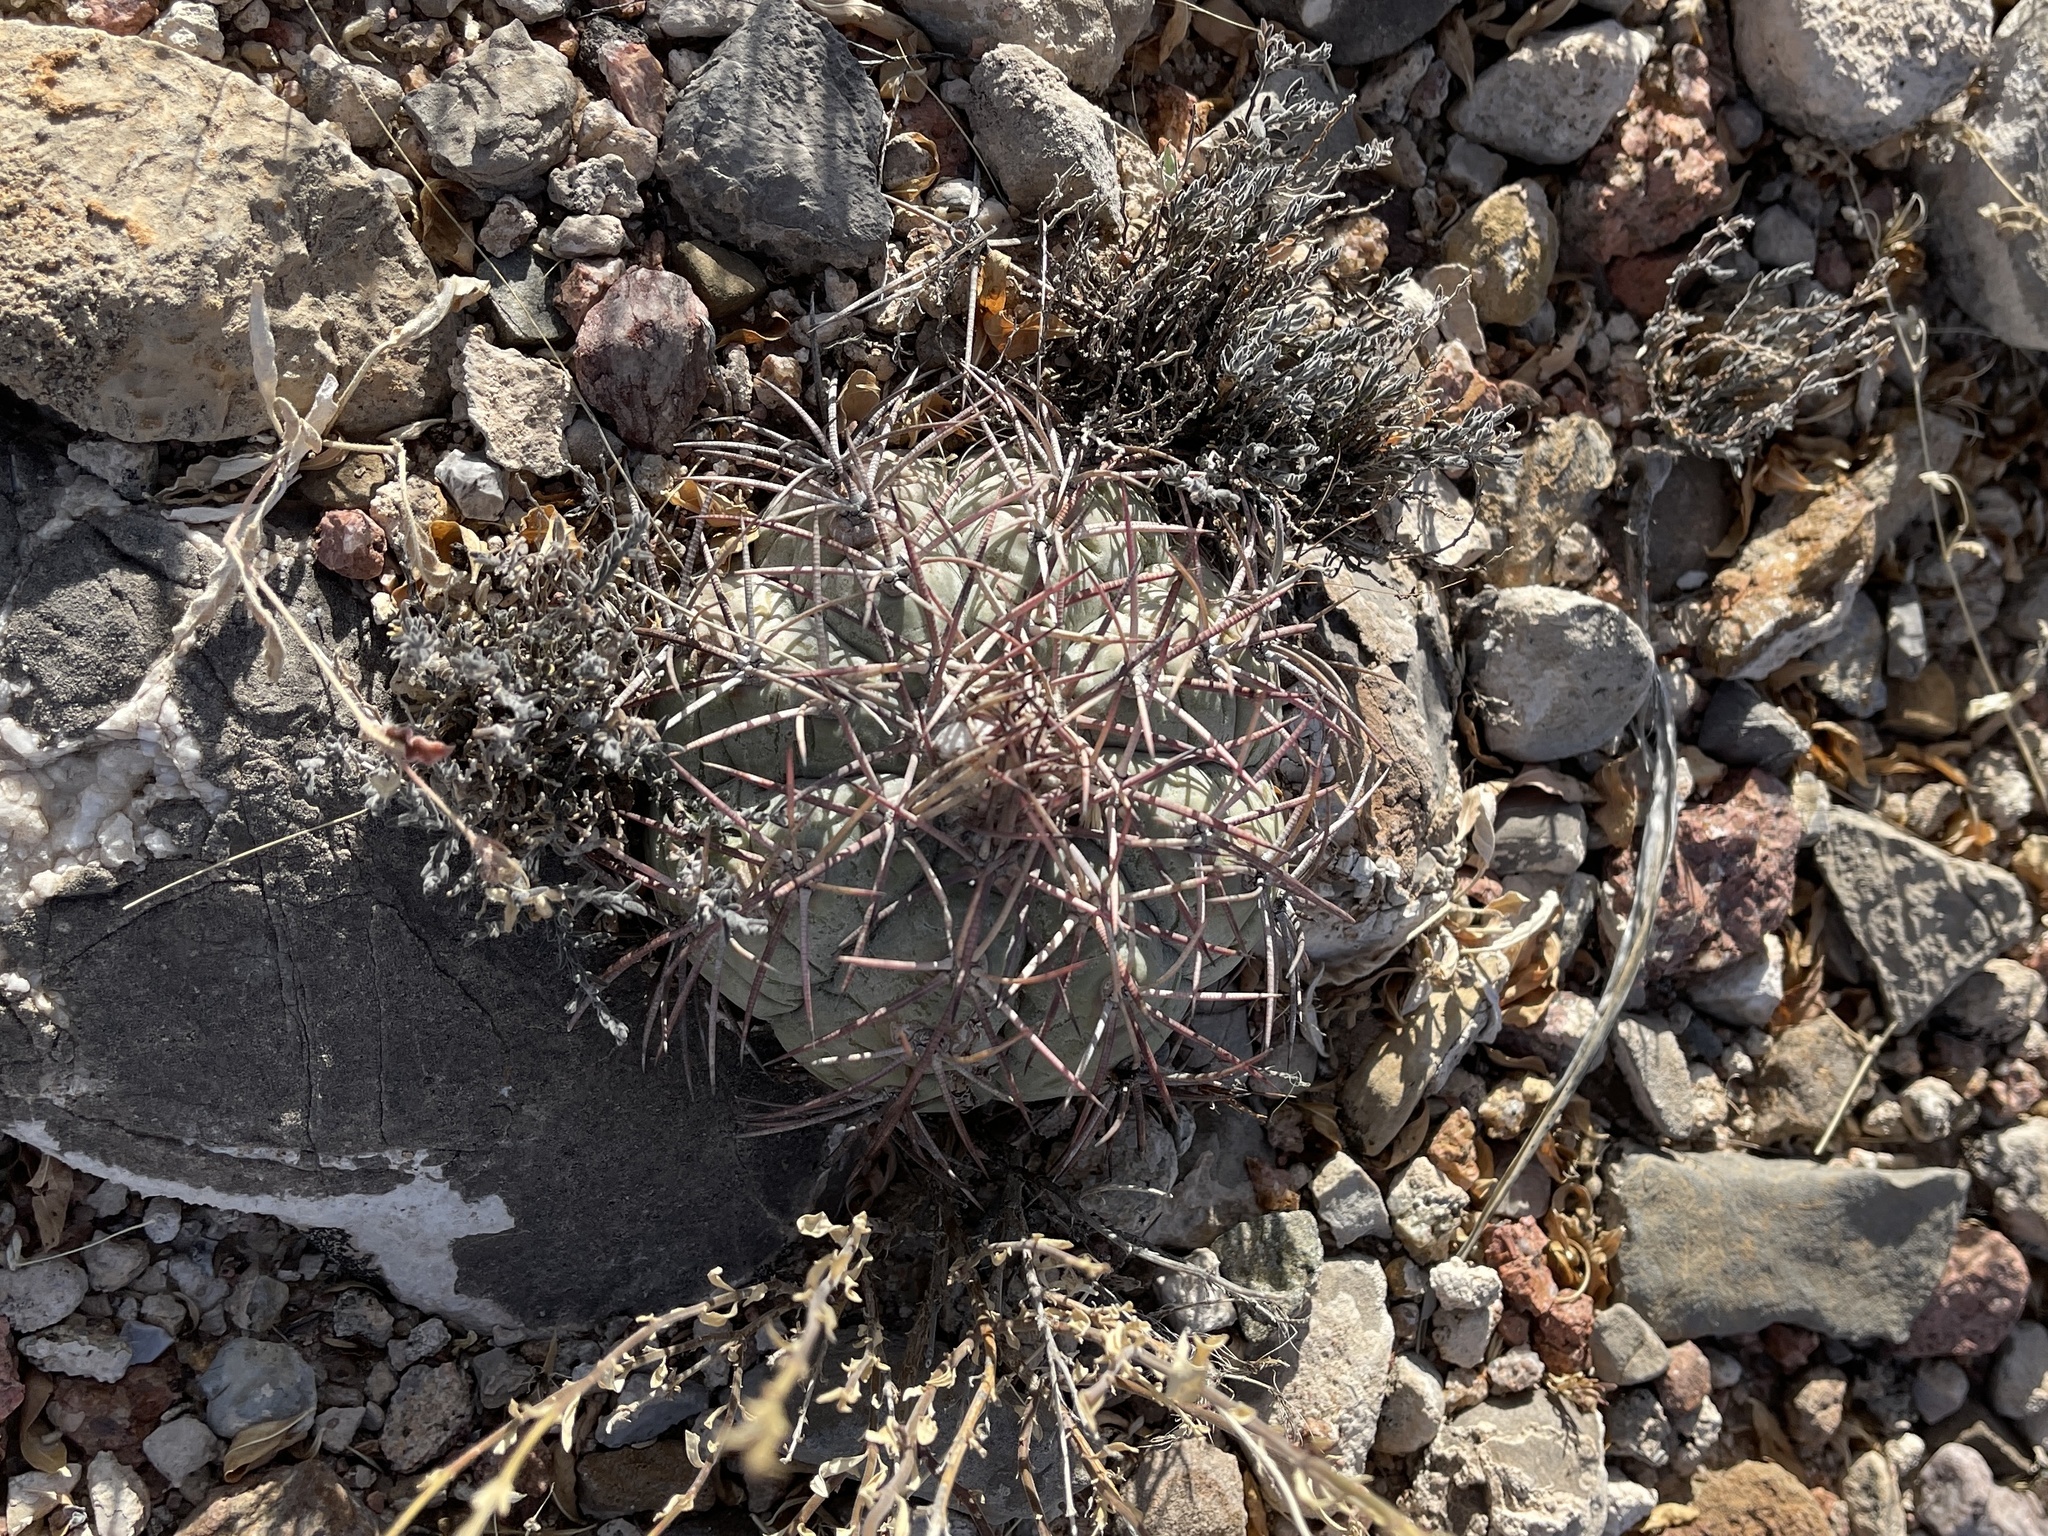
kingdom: Plantae
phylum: Tracheophyta
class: Magnoliopsida
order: Caryophyllales
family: Cactaceae
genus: Echinocactus
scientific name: Echinocactus horizonthalonius
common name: Devilshead
